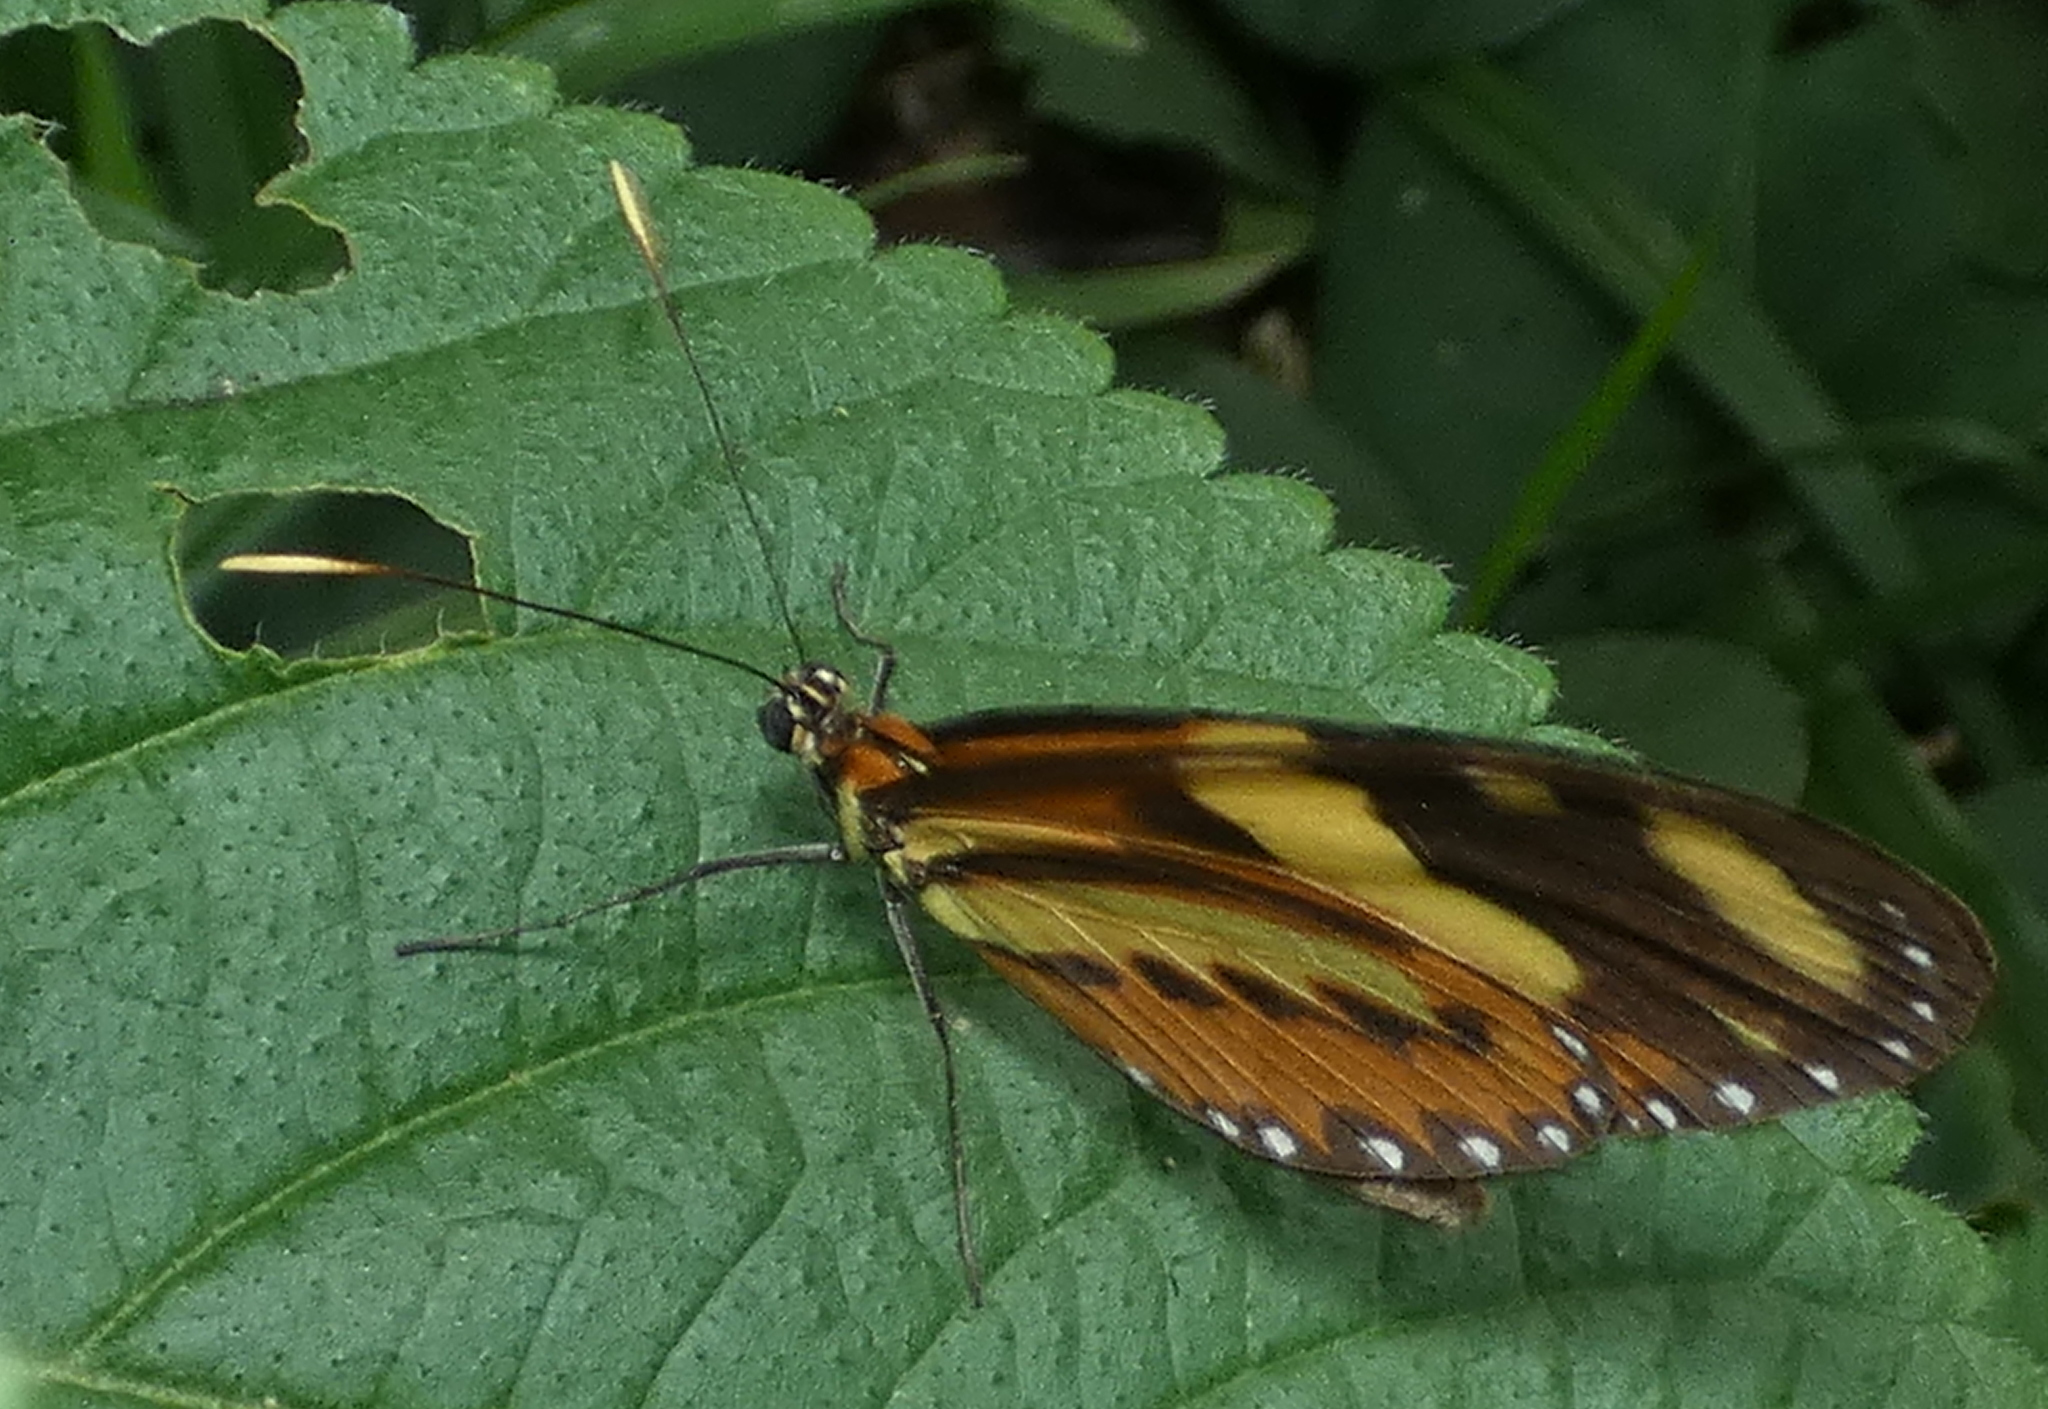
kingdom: Animalia
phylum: Arthropoda
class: Insecta
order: Lepidoptera
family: Nymphalidae
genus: Mechanitis
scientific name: Mechanitis lysimnia
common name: Lysimnia tigerwing
